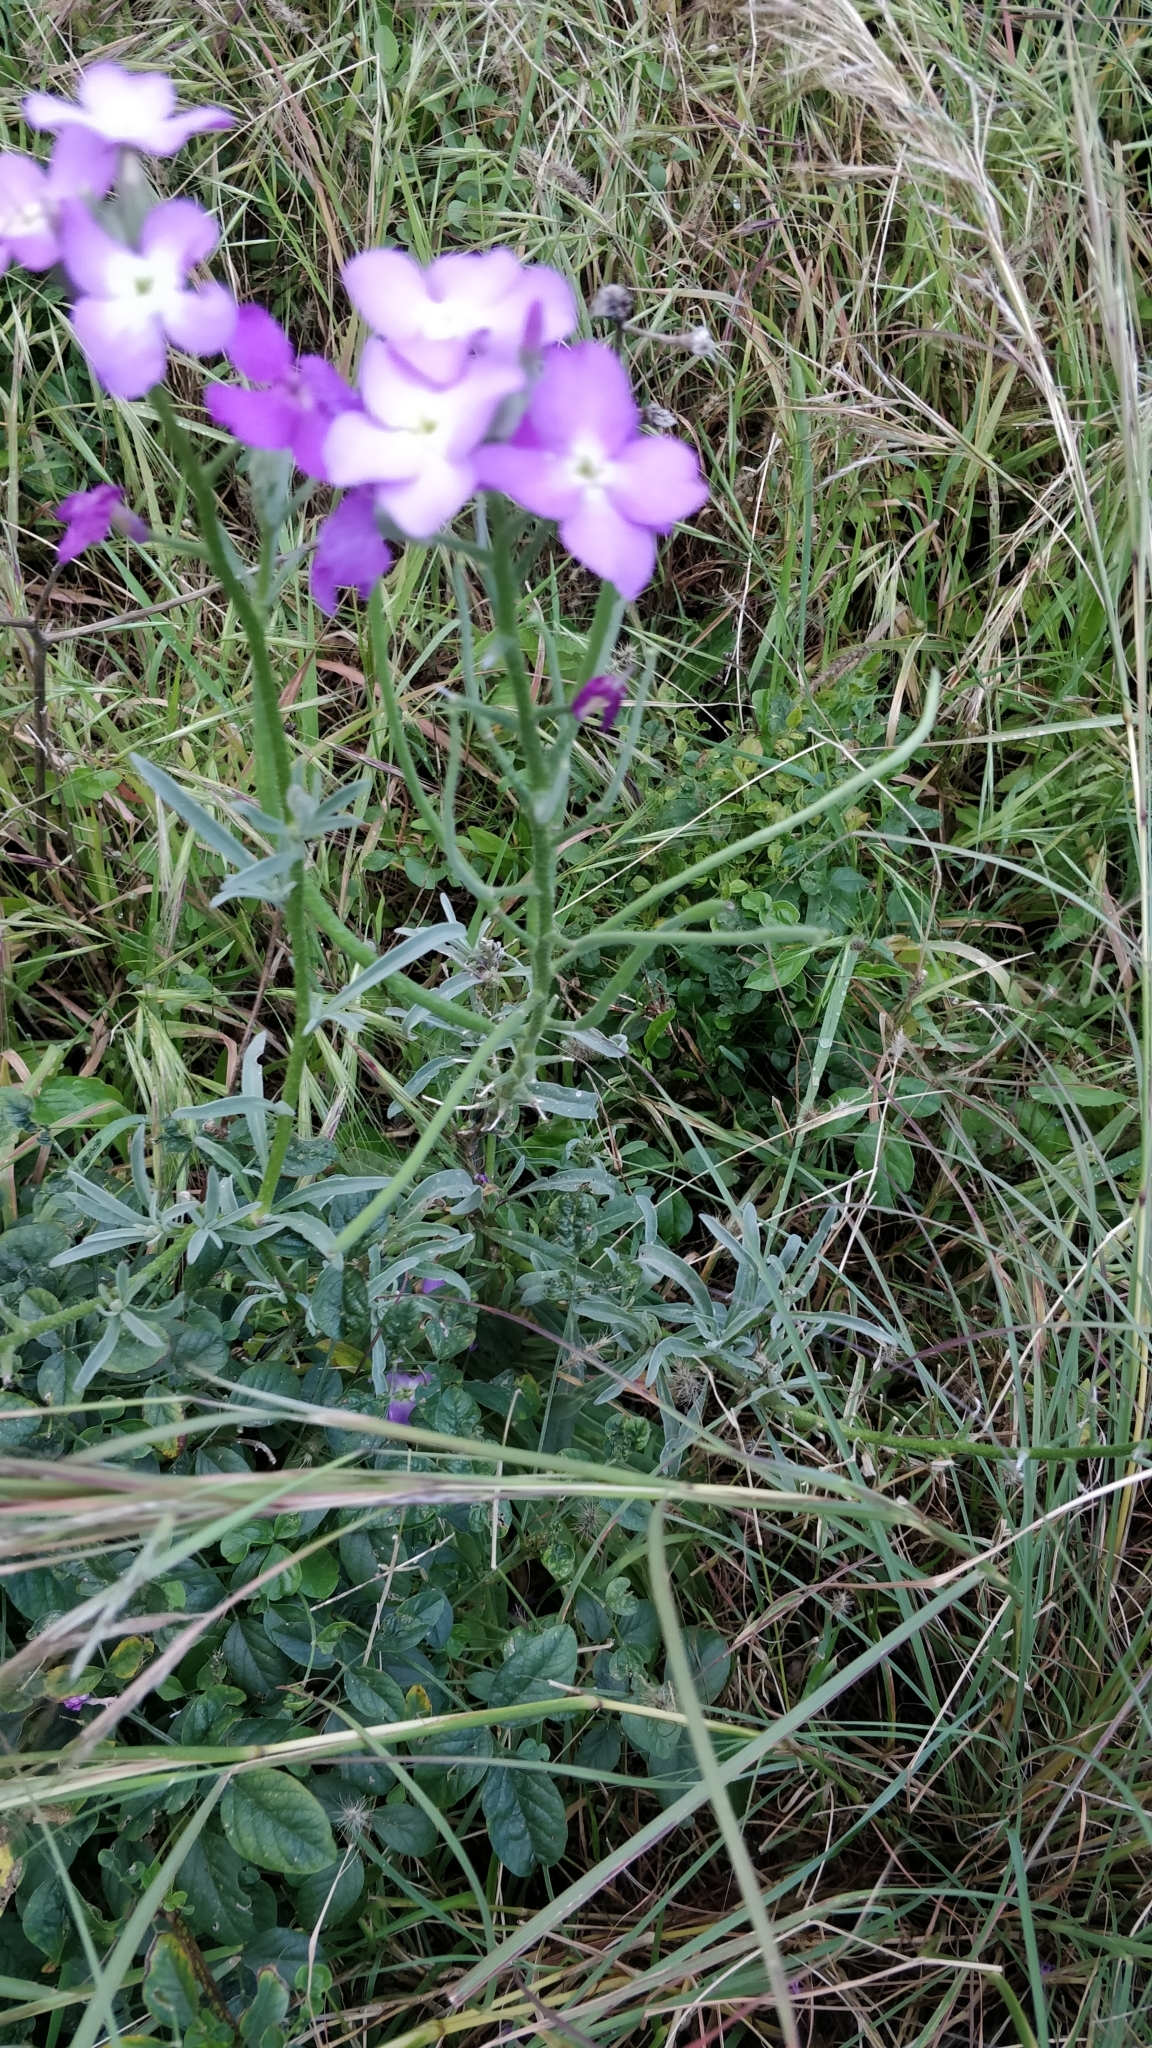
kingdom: Plantae
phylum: Tracheophyta
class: Magnoliopsida
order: Brassicales
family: Brassicaceae
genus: Matthiola
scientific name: Matthiola maderensis
